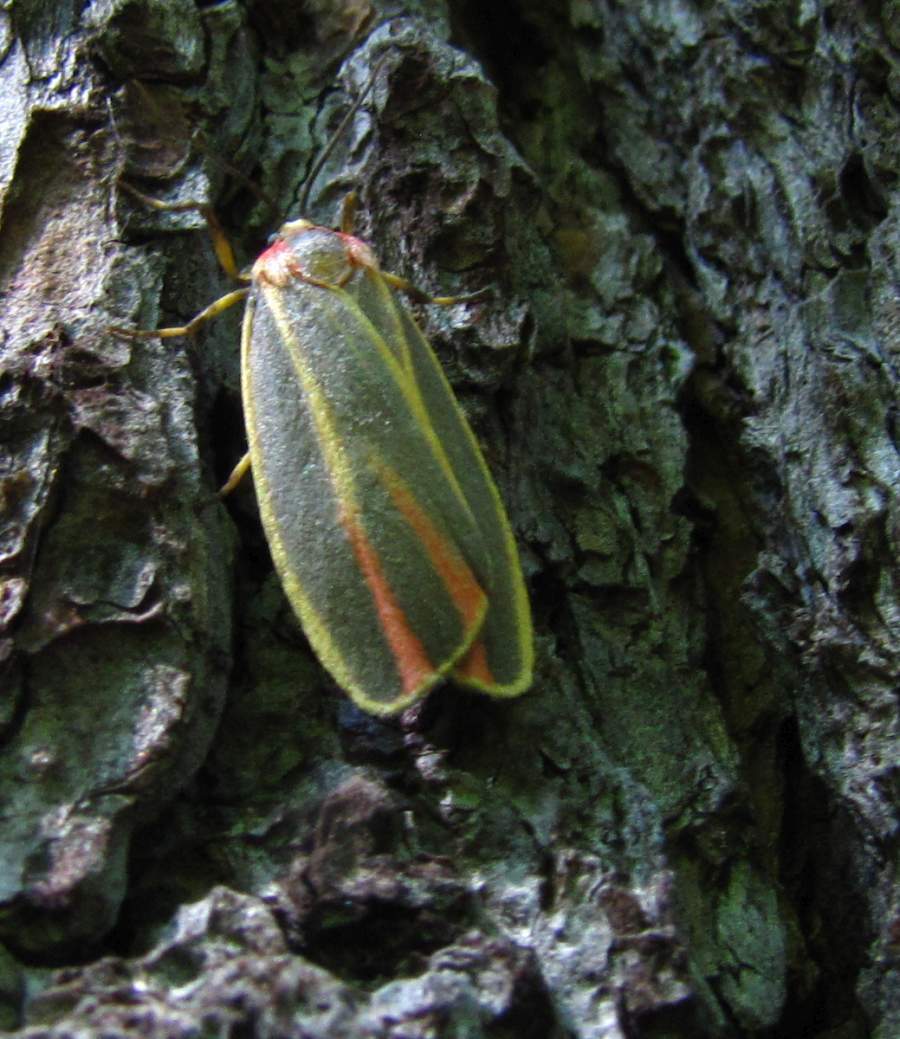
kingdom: Animalia
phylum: Arthropoda
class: Insecta
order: Lepidoptera
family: Erebidae
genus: Hypoprepia
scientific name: Hypoprepia fucosa
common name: Painted lichen moth
